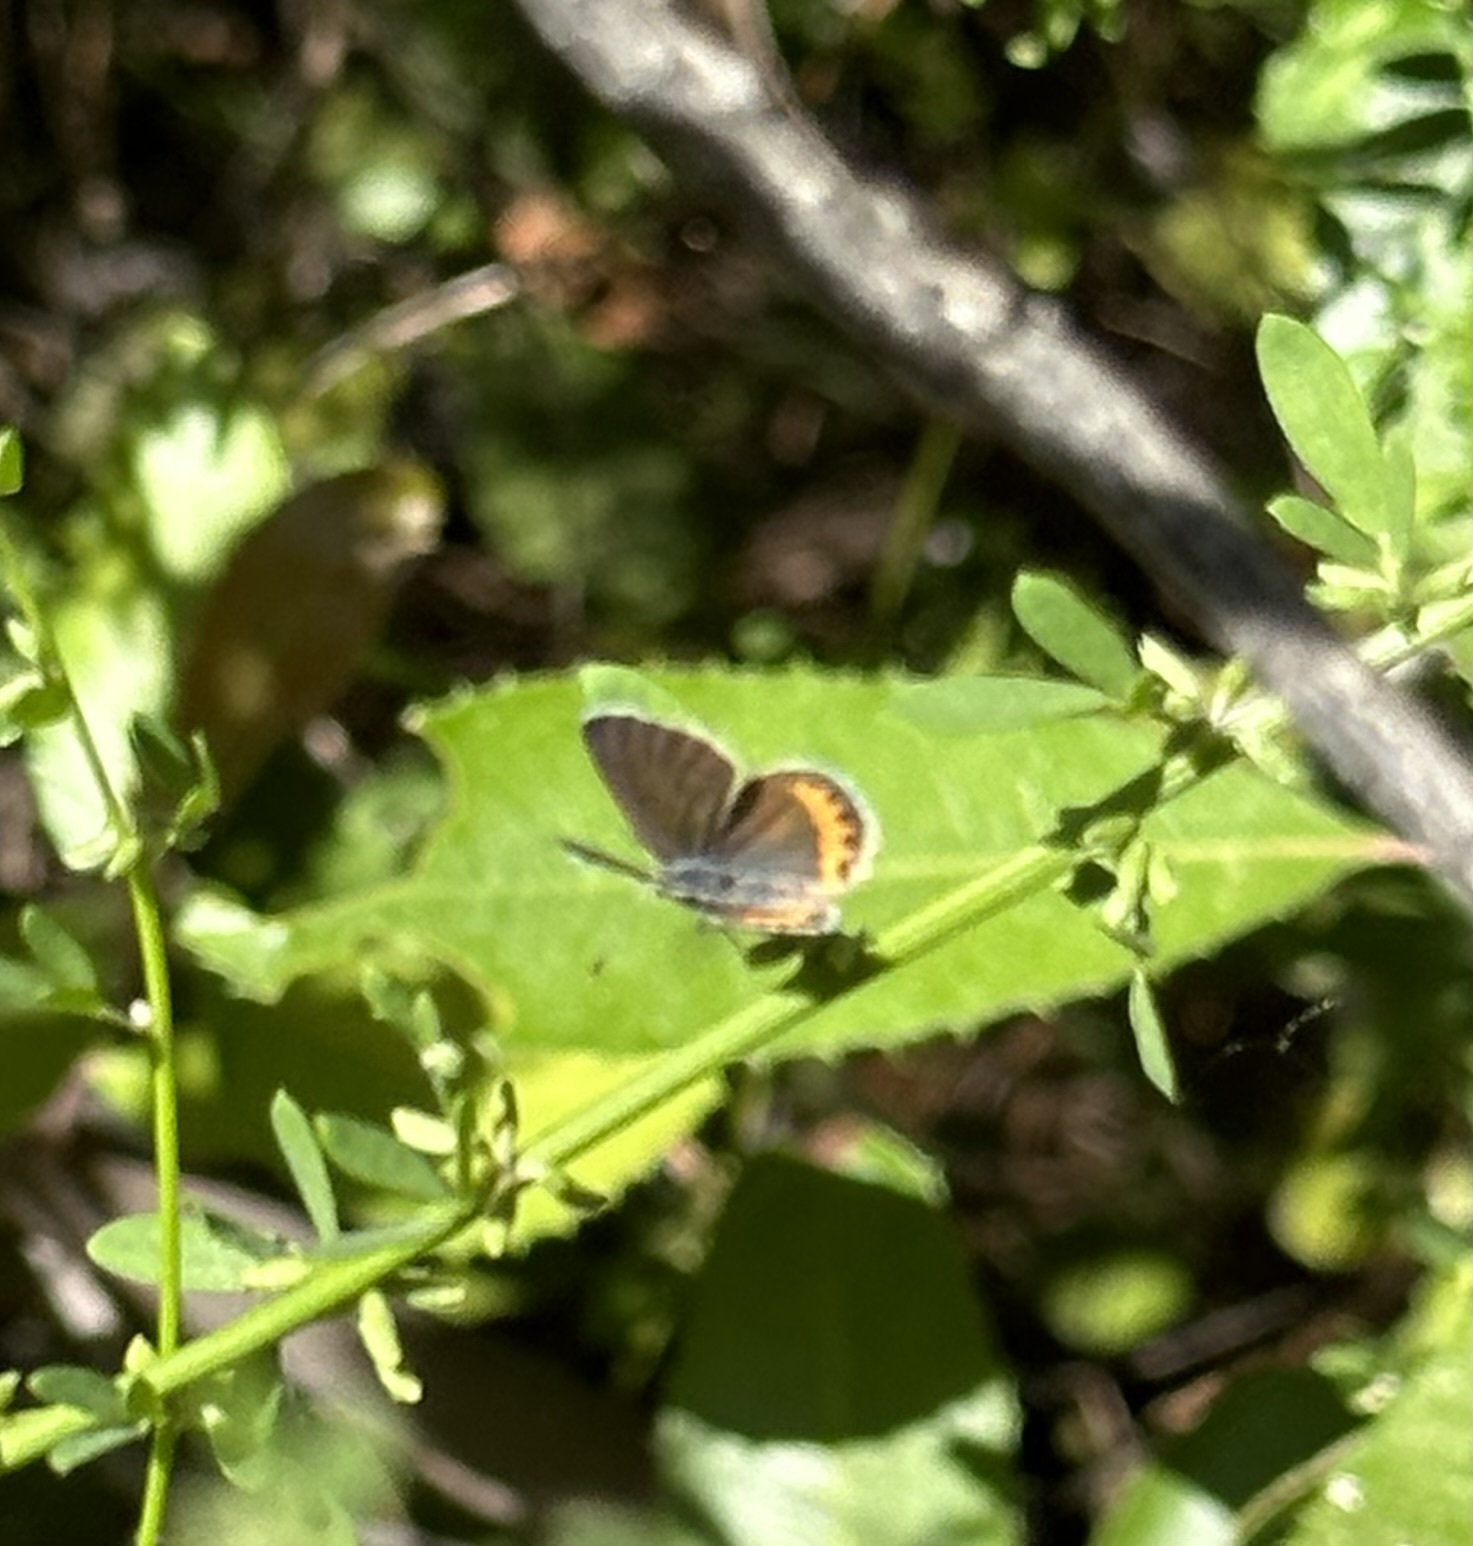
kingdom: Animalia
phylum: Arthropoda
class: Insecta
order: Lepidoptera
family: Lycaenidae
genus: Icaricia
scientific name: Icaricia acmon
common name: Acmon blue
